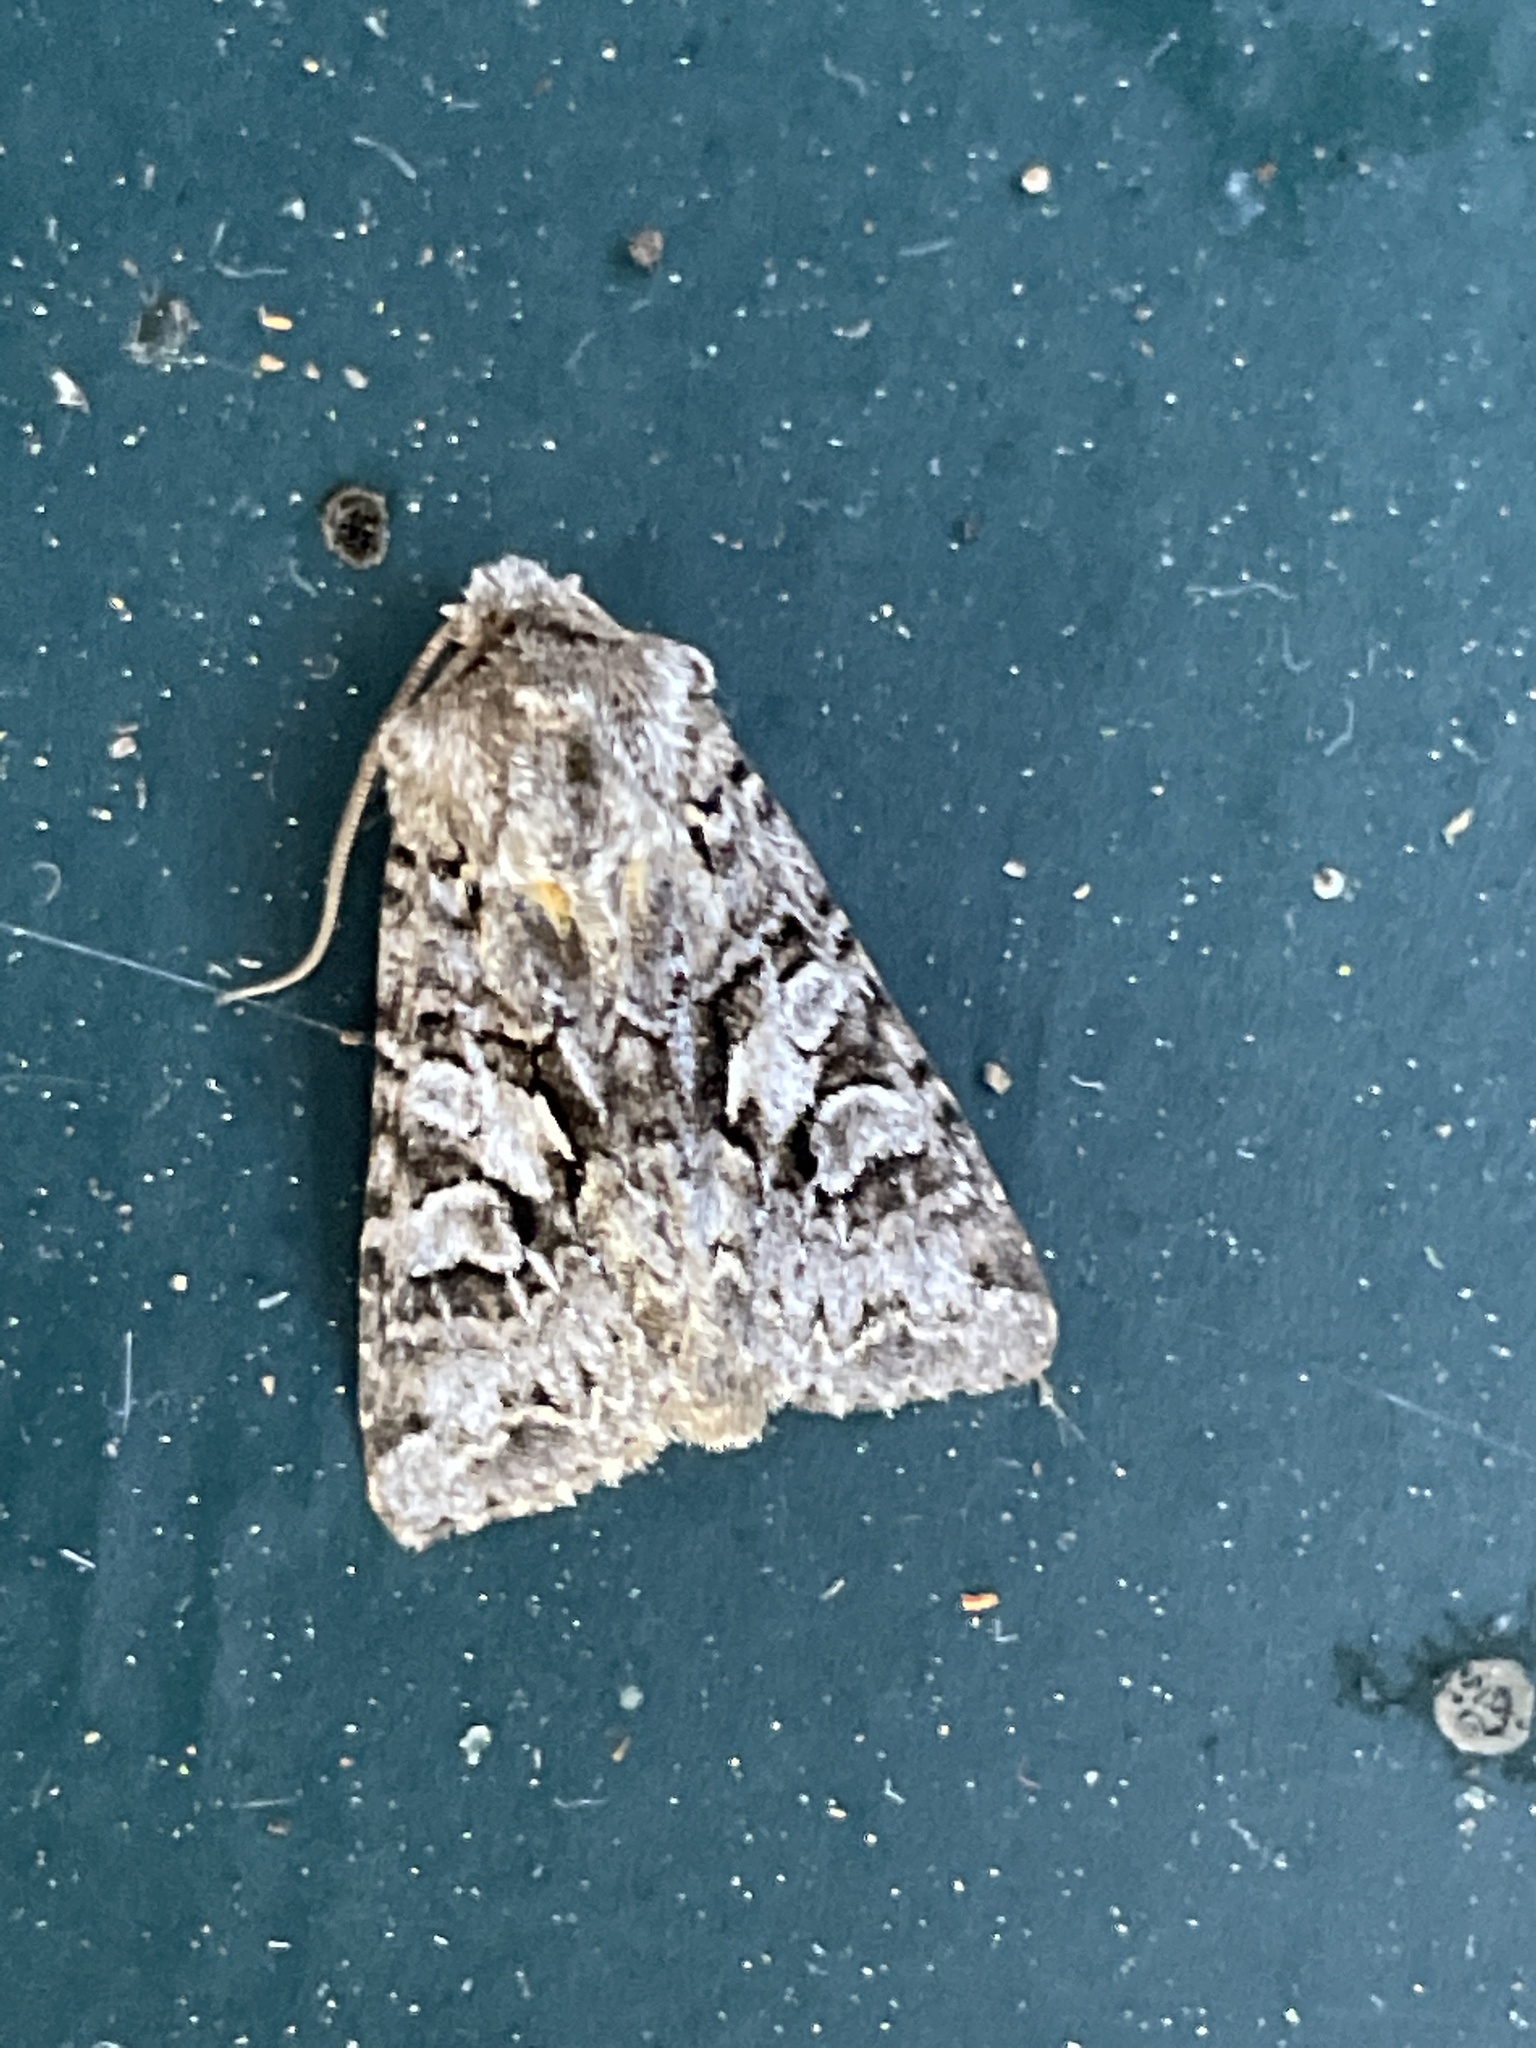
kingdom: Animalia
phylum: Arthropoda
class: Insecta
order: Lepidoptera
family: Noctuidae
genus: Hada
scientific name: Hada plebeja
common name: Shears
